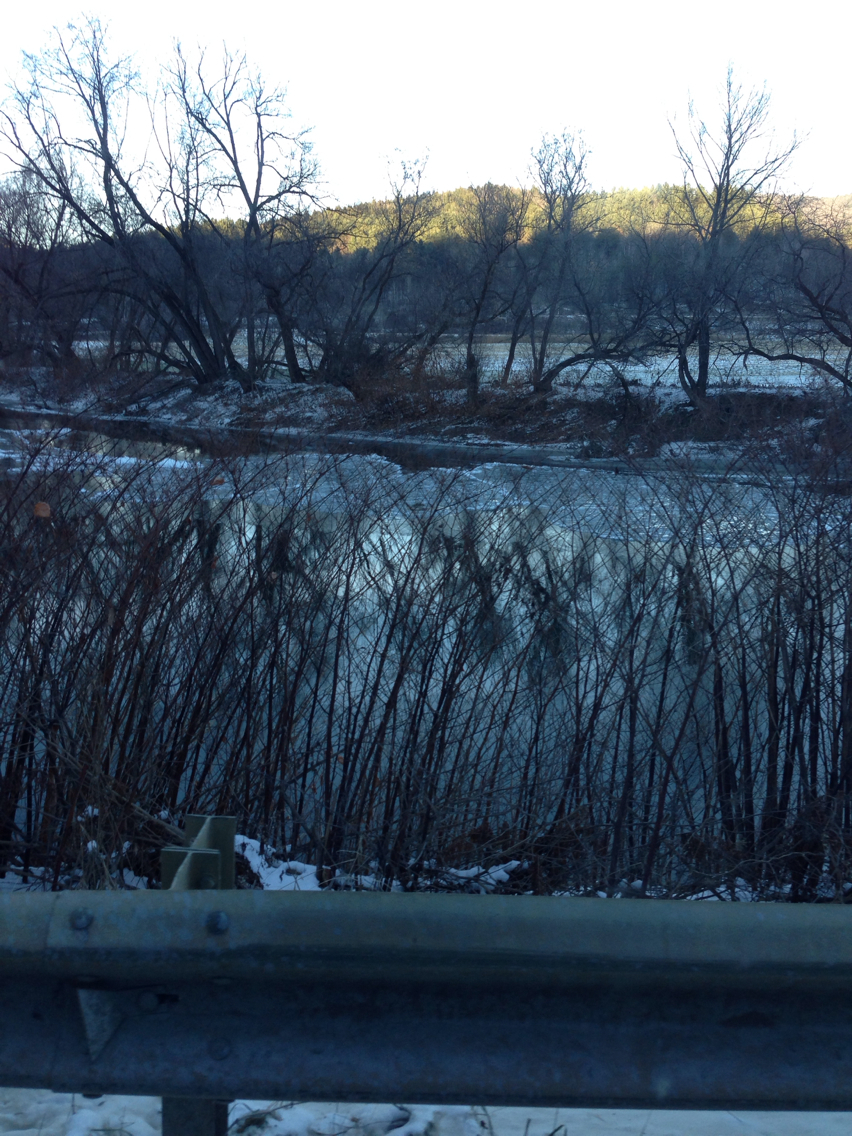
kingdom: Plantae
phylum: Tracheophyta
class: Magnoliopsida
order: Caryophyllales
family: Polygonaceae
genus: Reynoutria
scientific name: Reynoutria japonica
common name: Japanese knotweed
